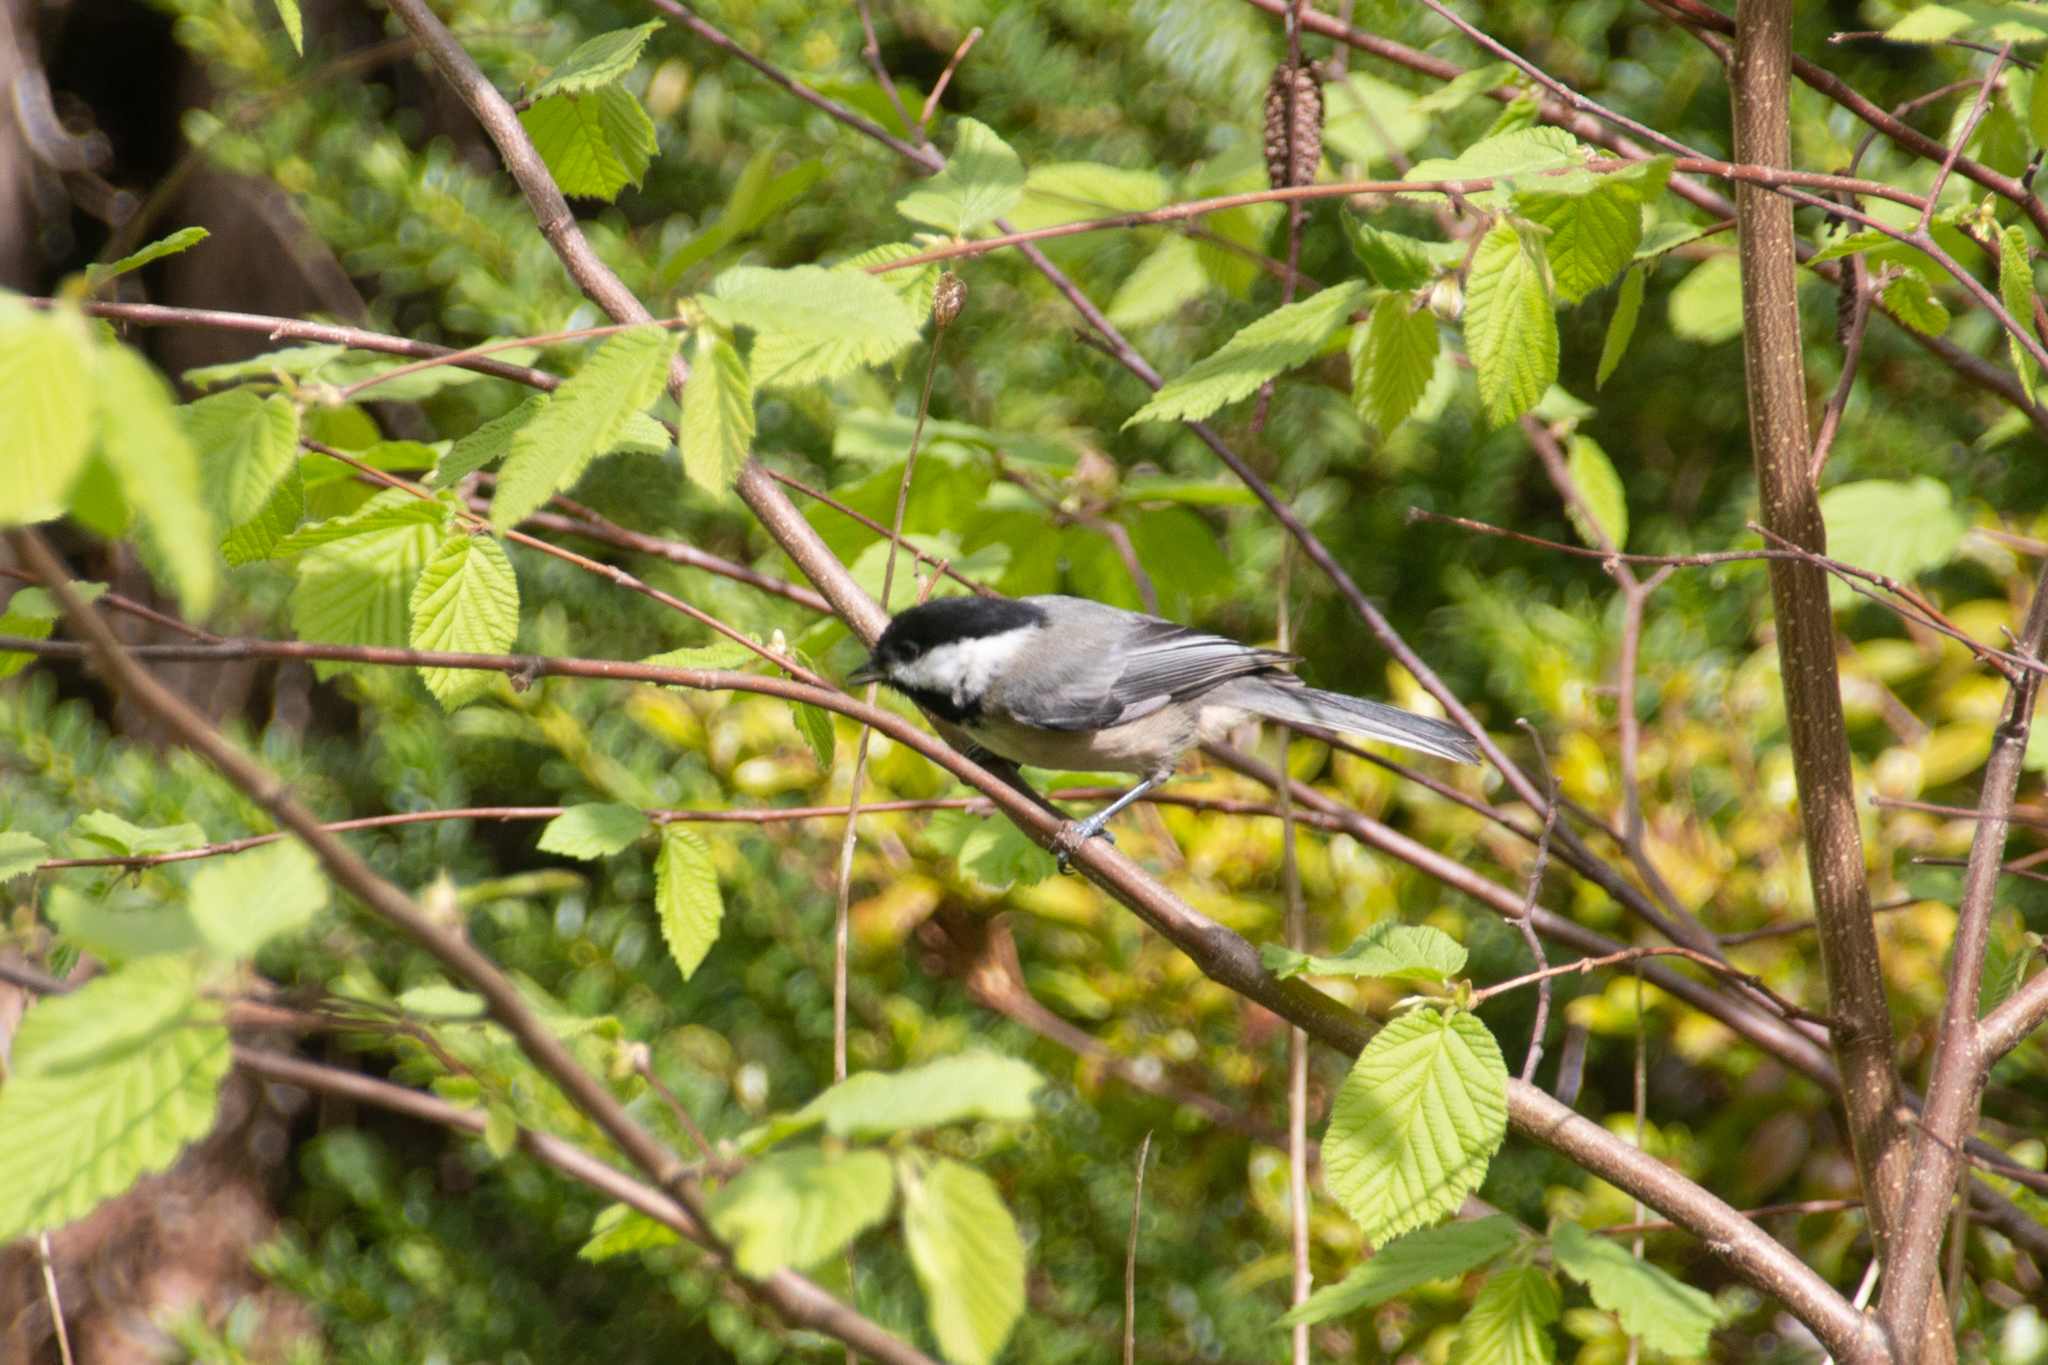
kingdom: Animalia
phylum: Chordata
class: Aves
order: Passeriformes
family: Paridae
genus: Poecile
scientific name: Poecile atricapillus
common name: Black-capped chickadee
